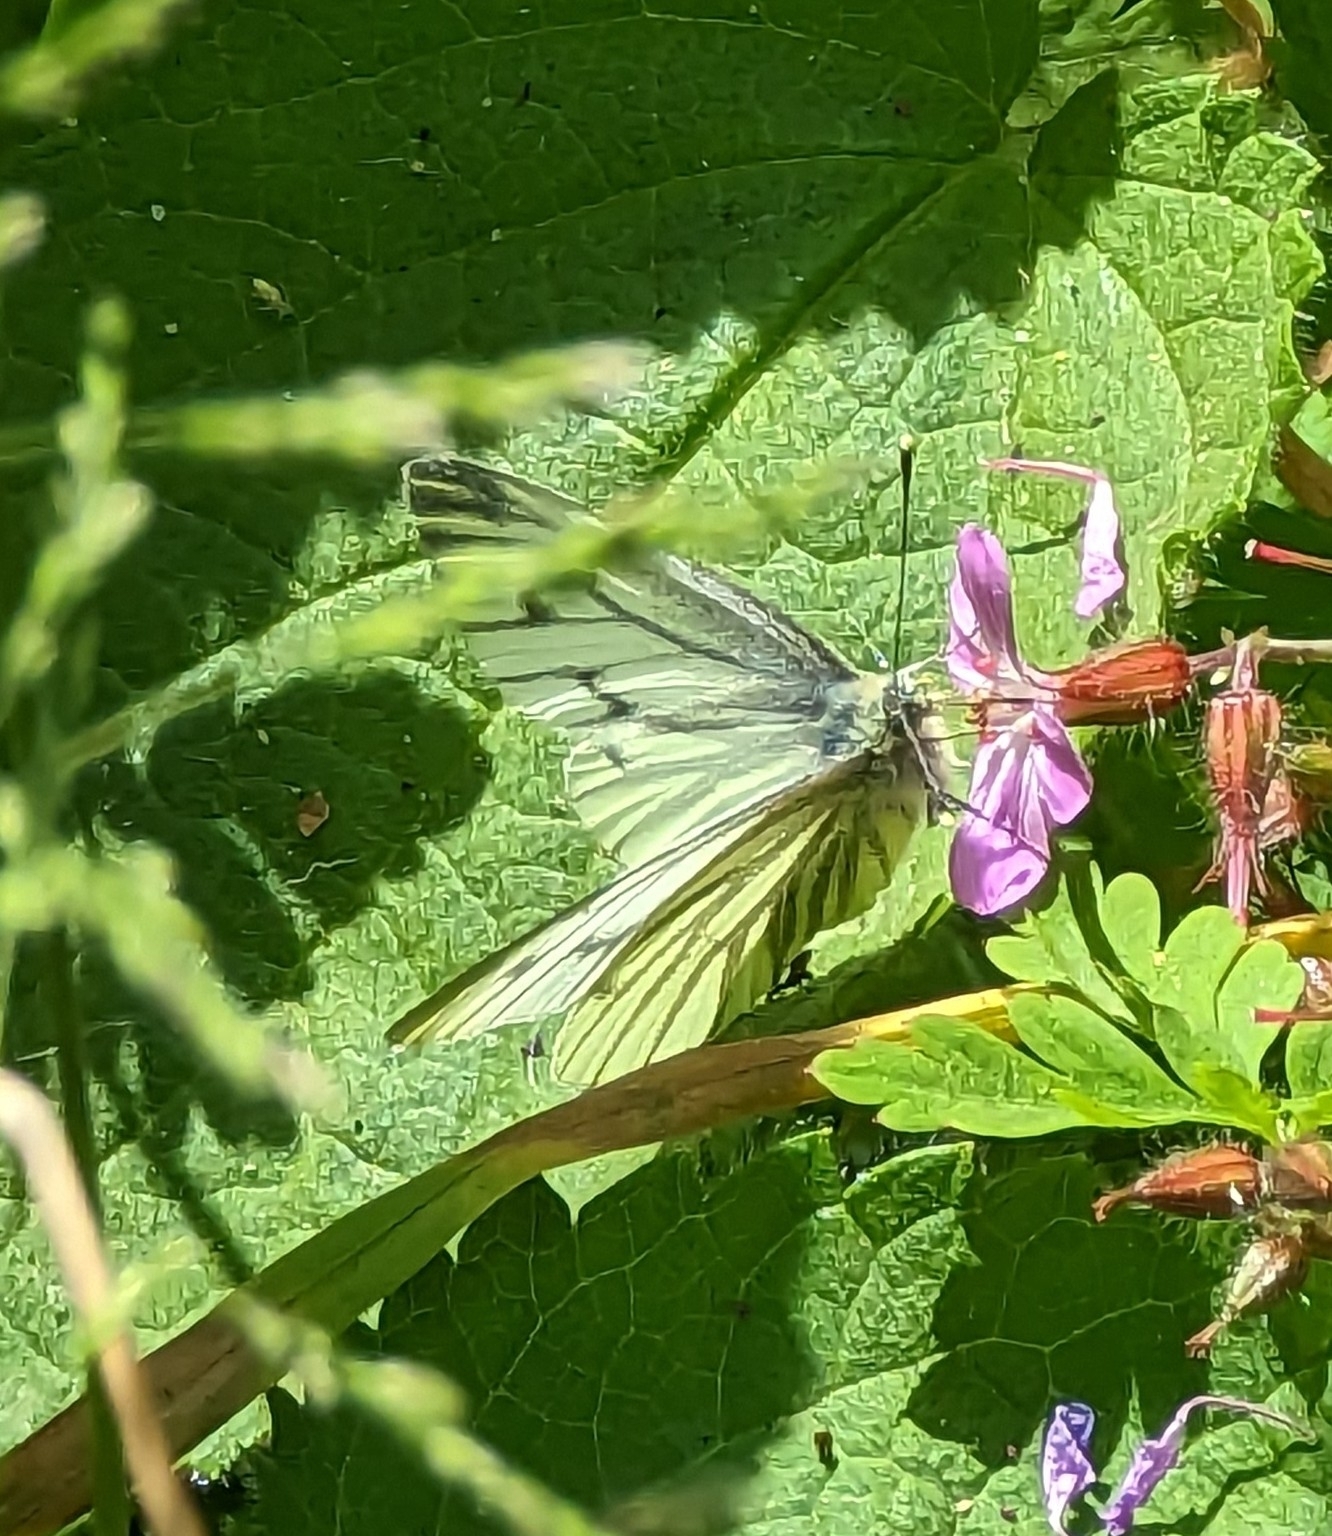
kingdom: Animalia
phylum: Arthropoda
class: Insecta
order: Lepidoptera
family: Pieridae
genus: Pieris
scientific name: Pieris napi
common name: Green-veined white
